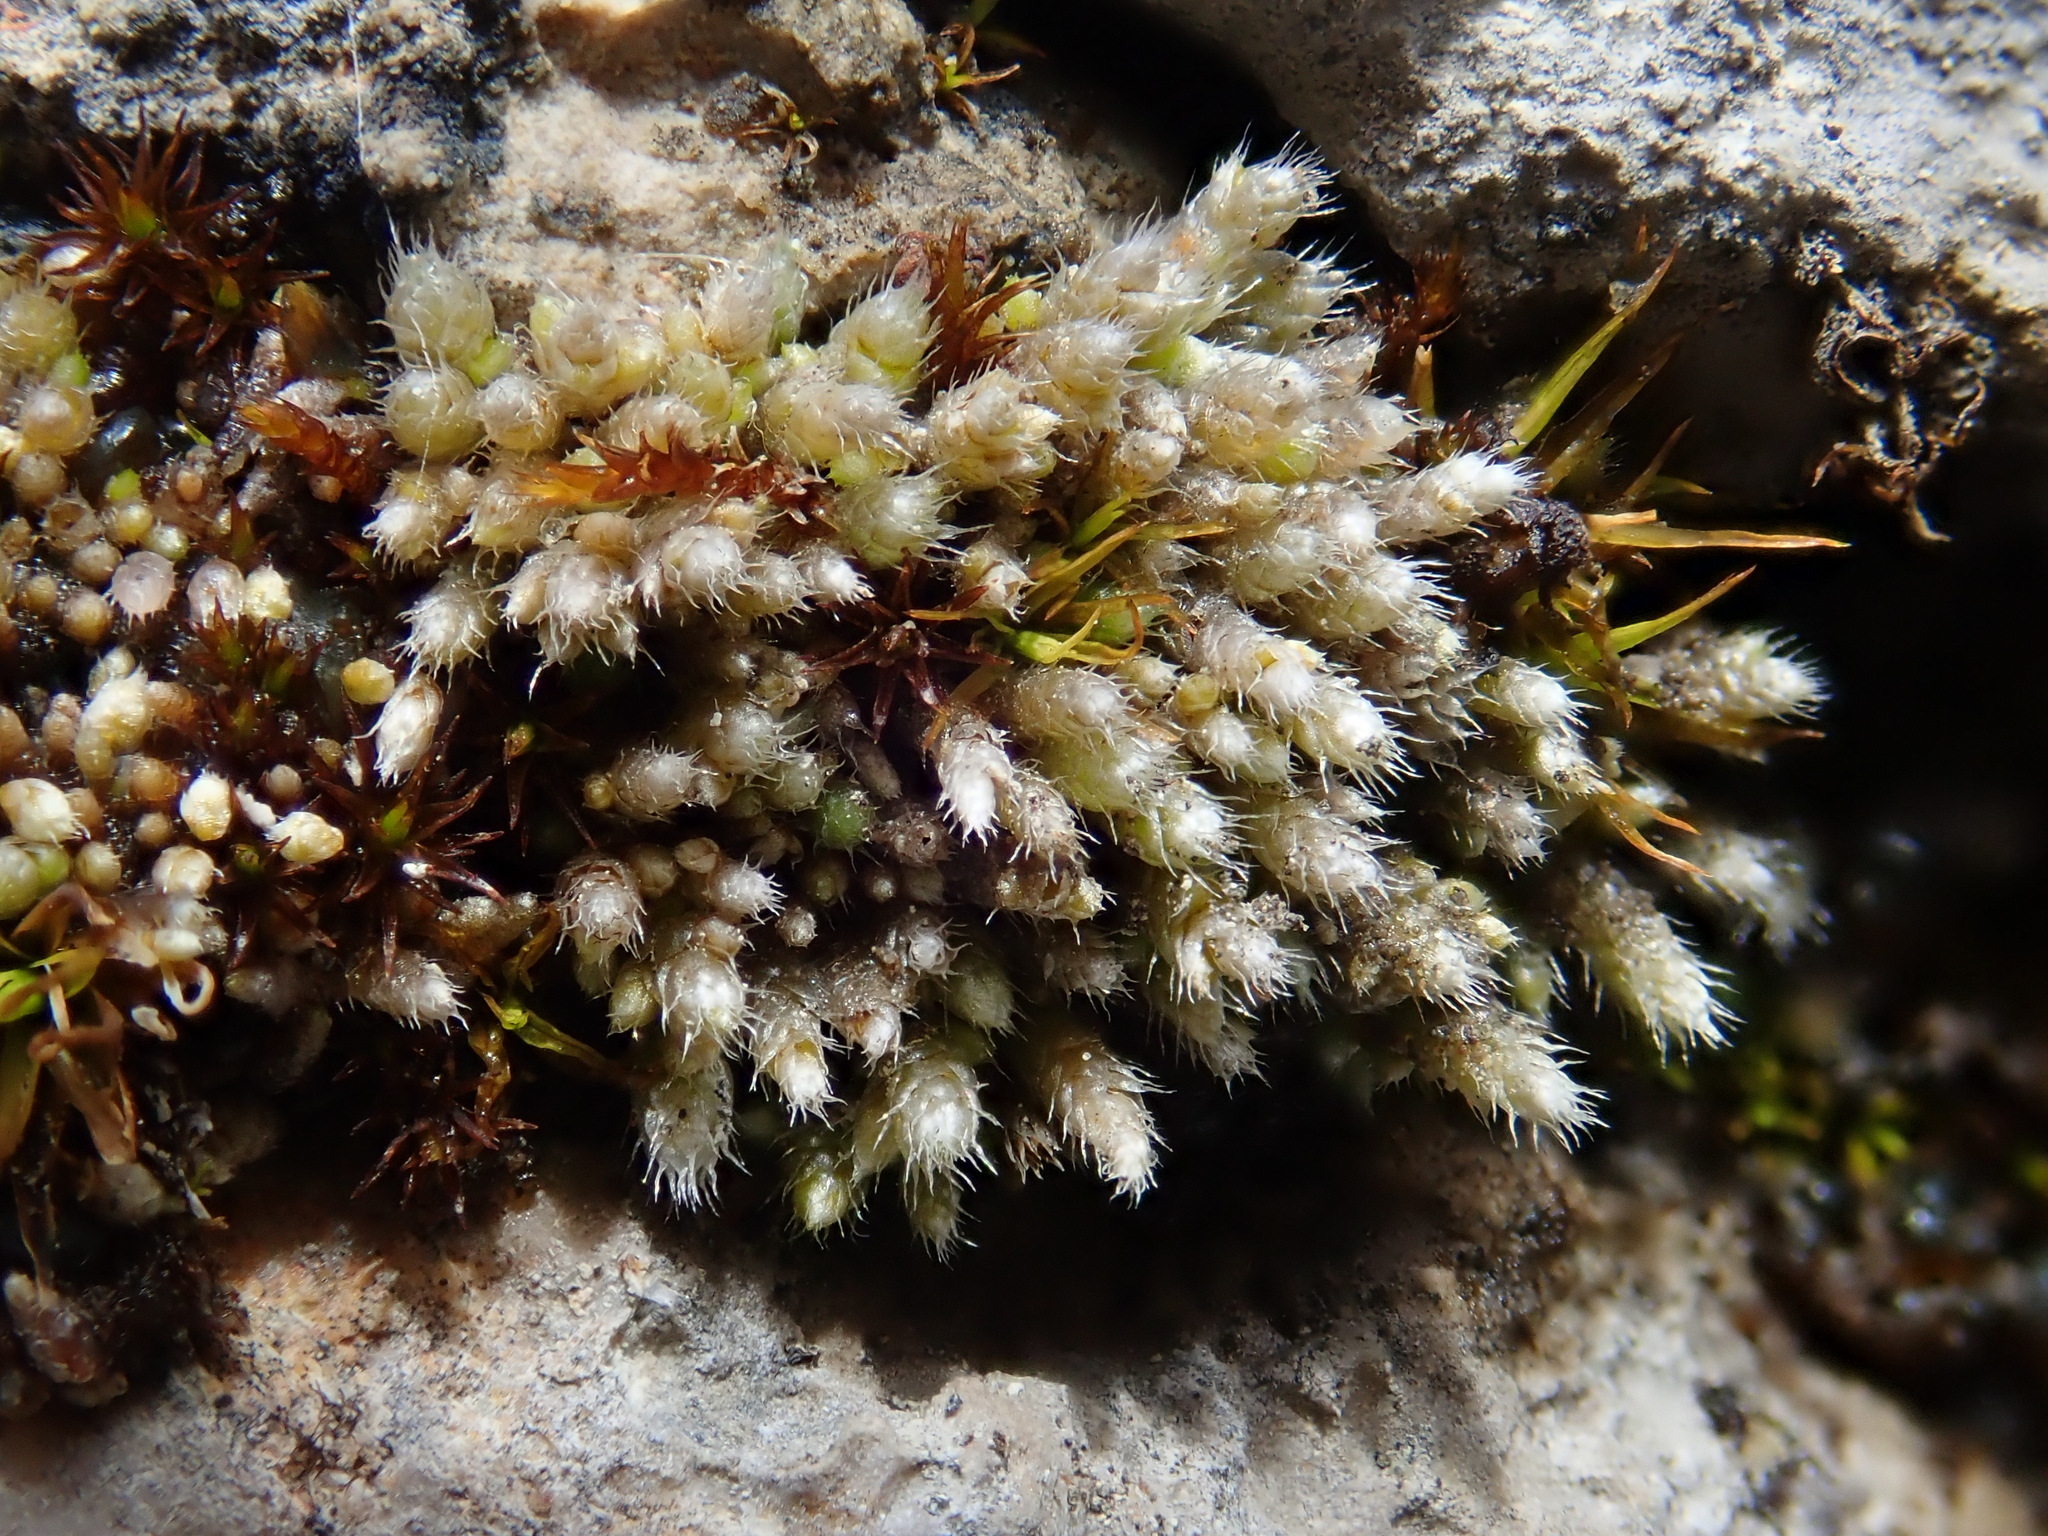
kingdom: Plantae
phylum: Bryophyta
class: Bryopsida
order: Bryales
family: Bryaceae
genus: Bryum
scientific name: Bryum argenteum
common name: Silver-moss
